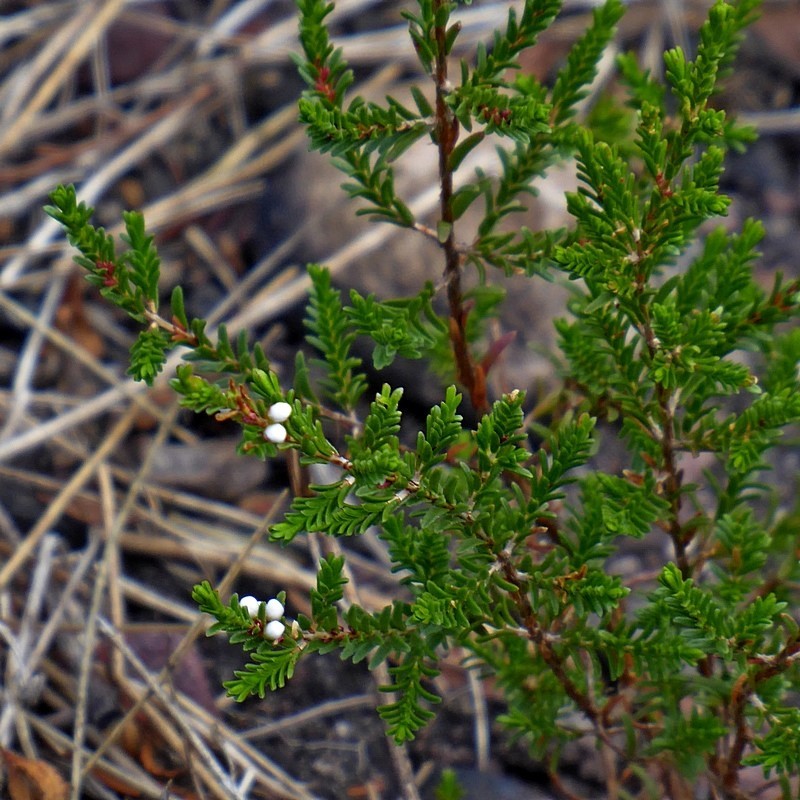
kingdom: Plantae
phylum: Tracheophyta
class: Magnoliopsida
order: Myrtales
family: Myrtaceae
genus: Micromyrtus
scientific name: Micromyrtus ciliata
